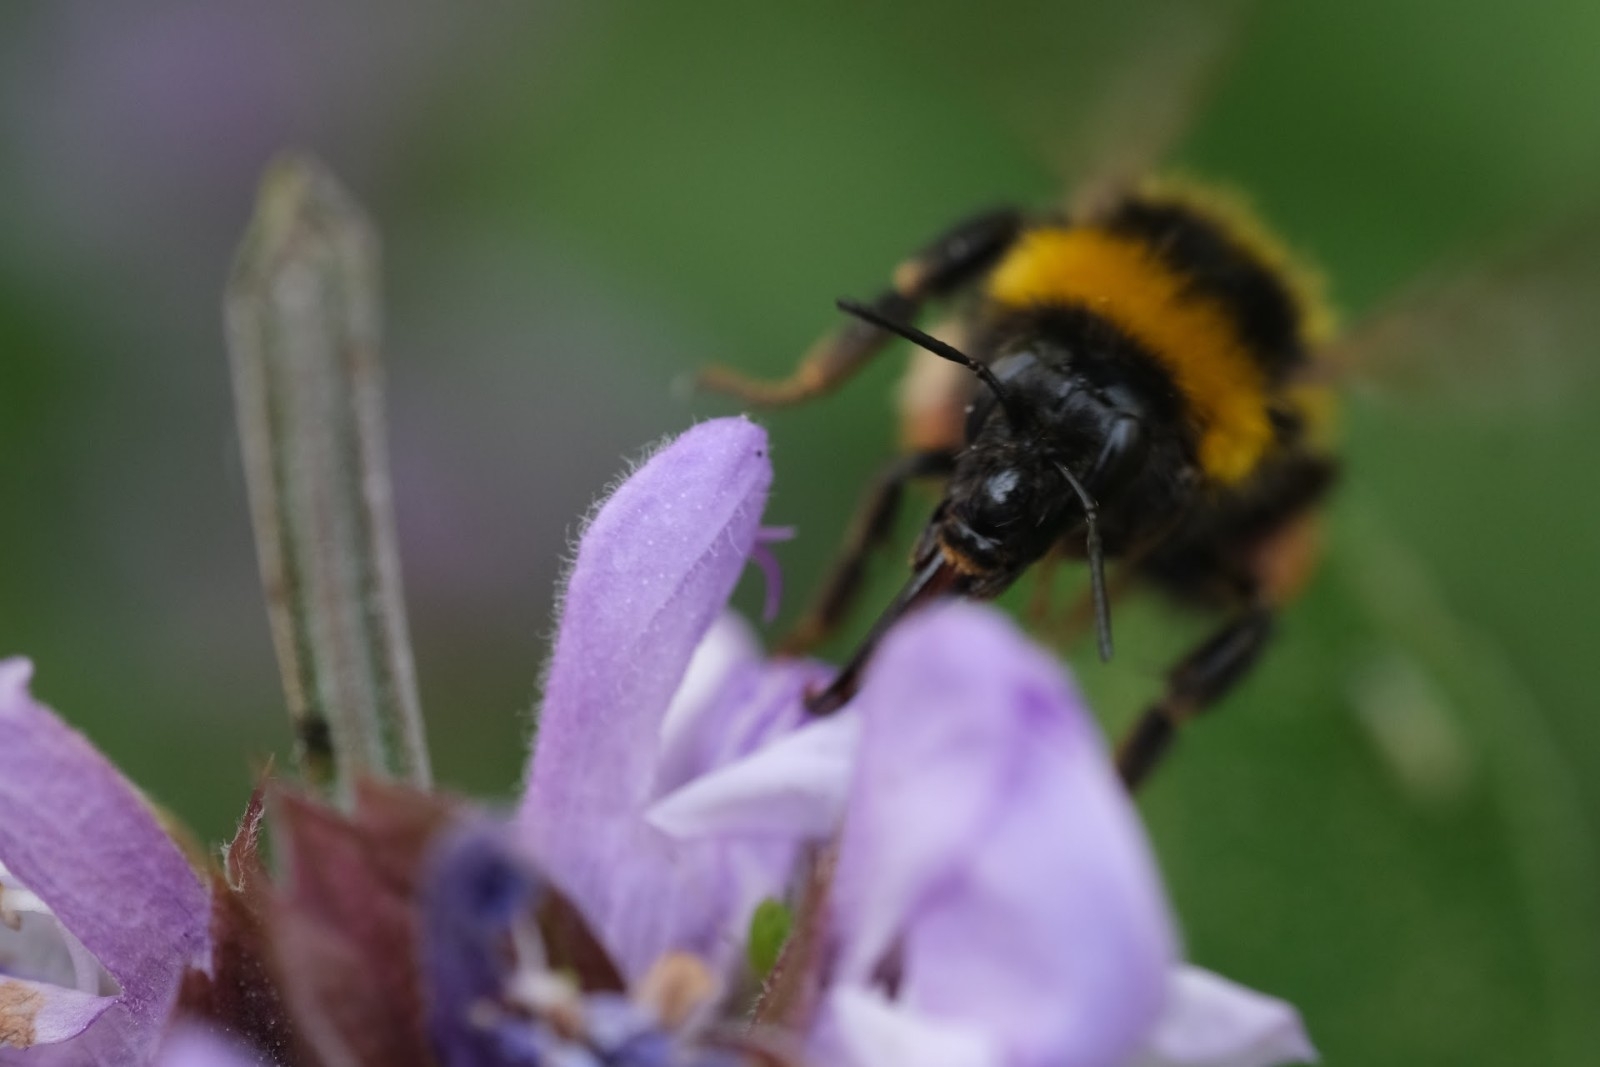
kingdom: Animalia
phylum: Arthropoda
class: Insecta
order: Hymenoptera
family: Apidae
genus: Bombus
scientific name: Bombus hortorum
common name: Garden bumblebee
